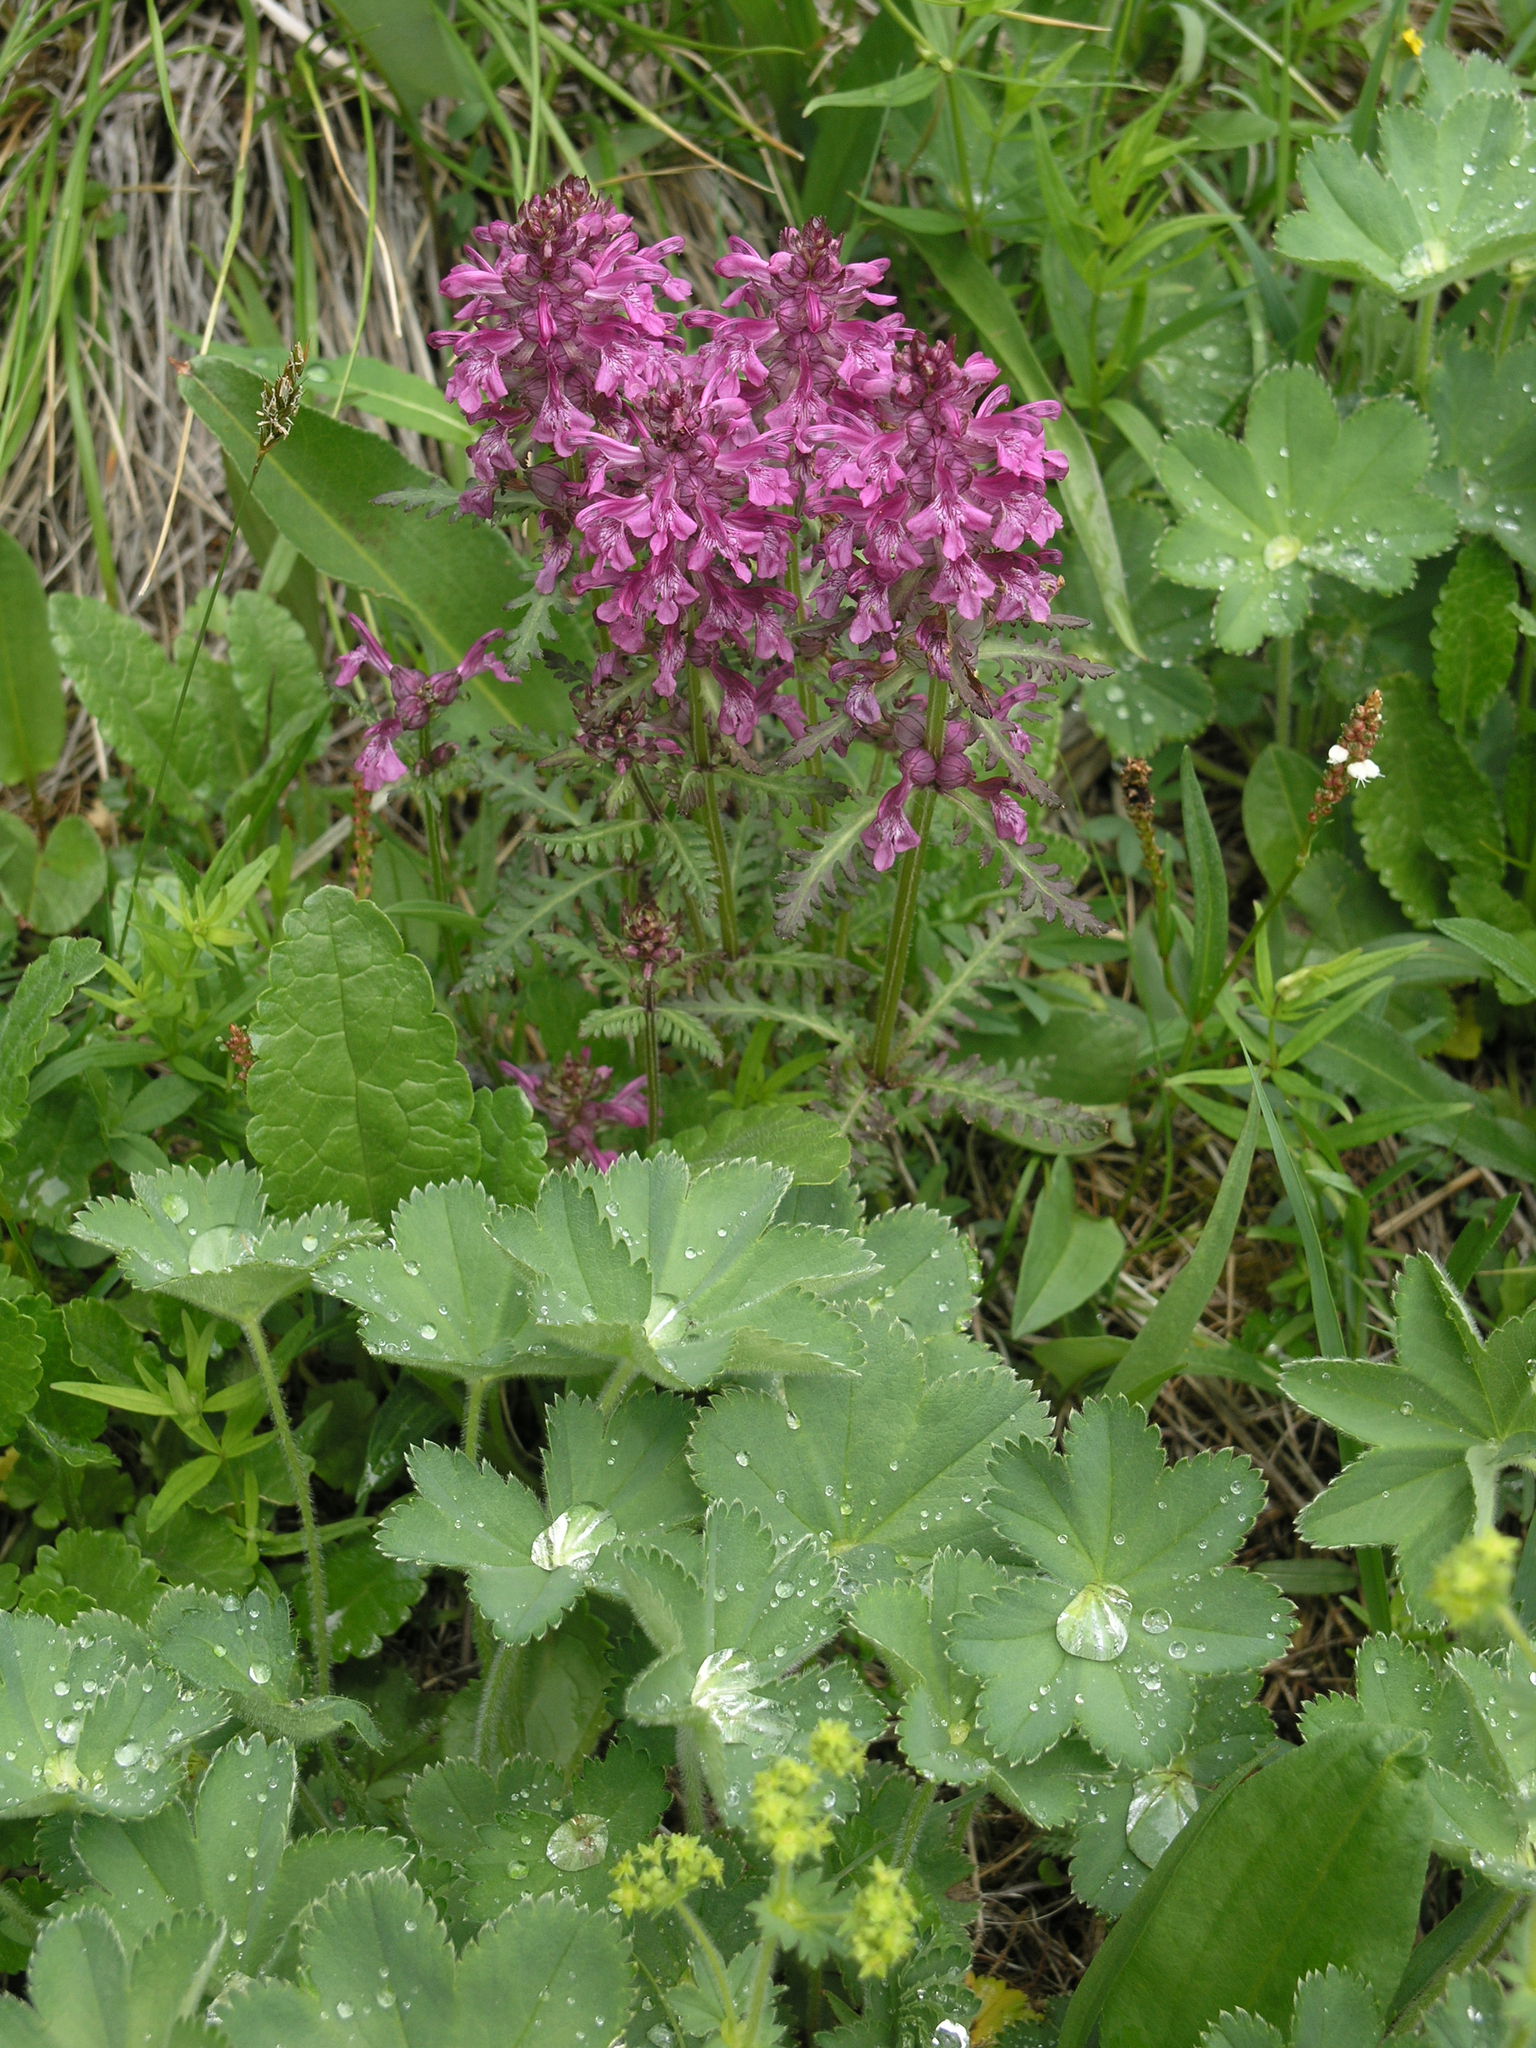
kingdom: Plantae
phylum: Tracheophyta
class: Magnoliopsida
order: Lamiales
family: Orobanchaceae
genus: Pedicularis
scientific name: Pedicularis verticillata
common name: Whorled lousewort
